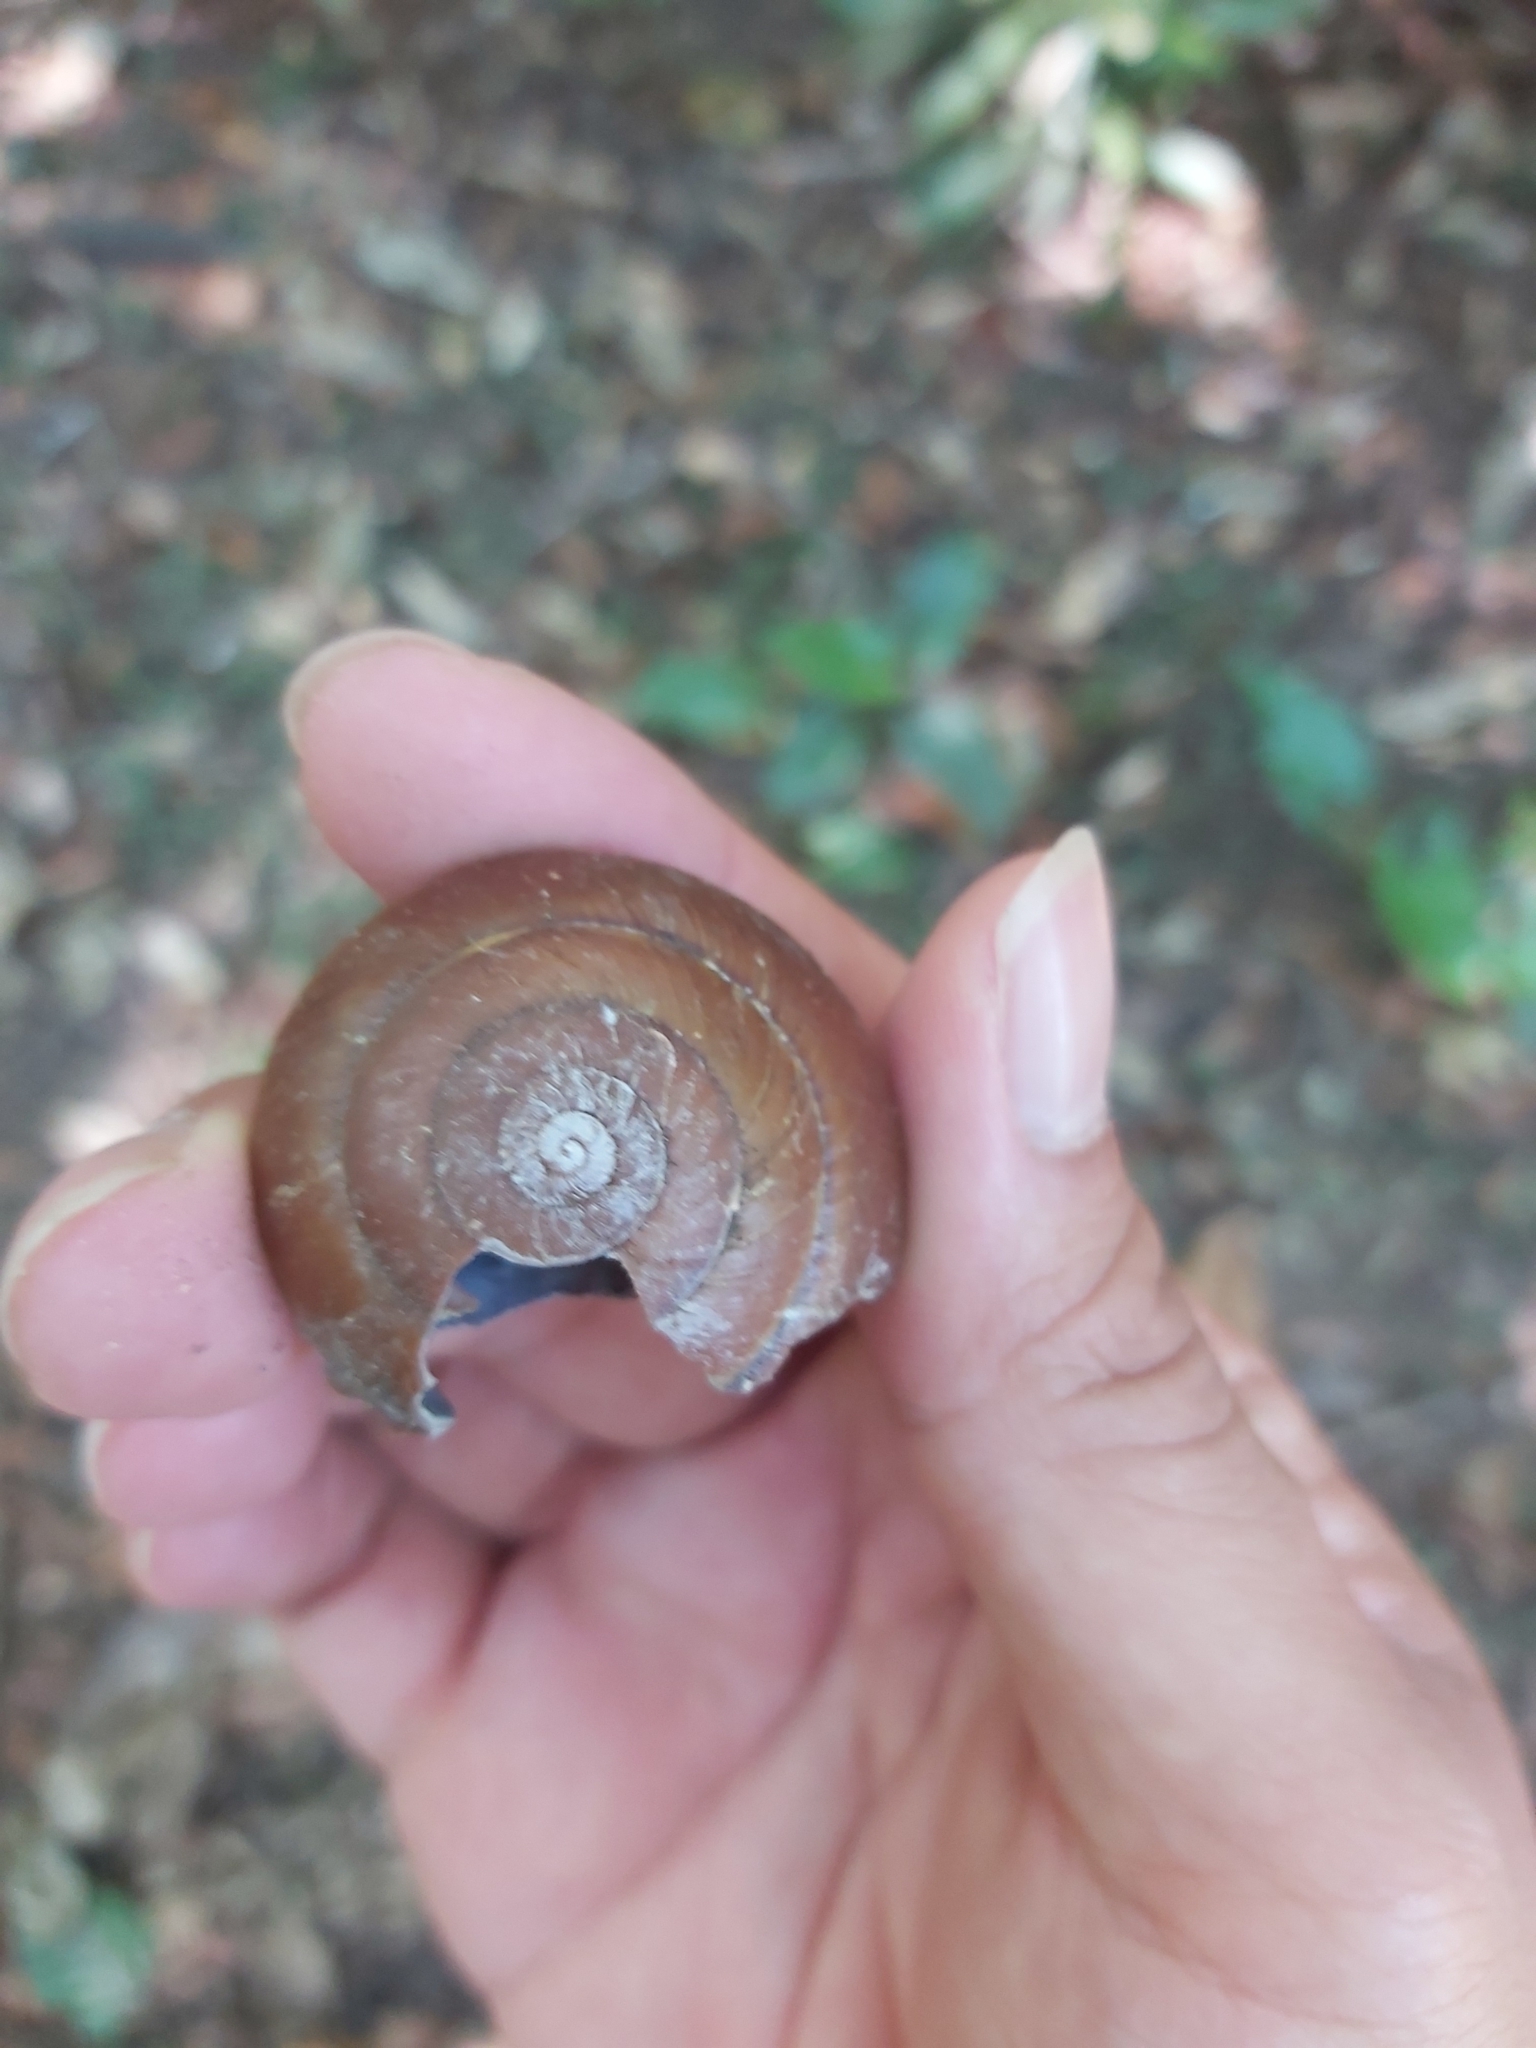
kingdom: Animalia
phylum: Mollusca
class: Gastropoda
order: Stylommatophora
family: Camaenidae
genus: Hadra
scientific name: Hadra webbi
